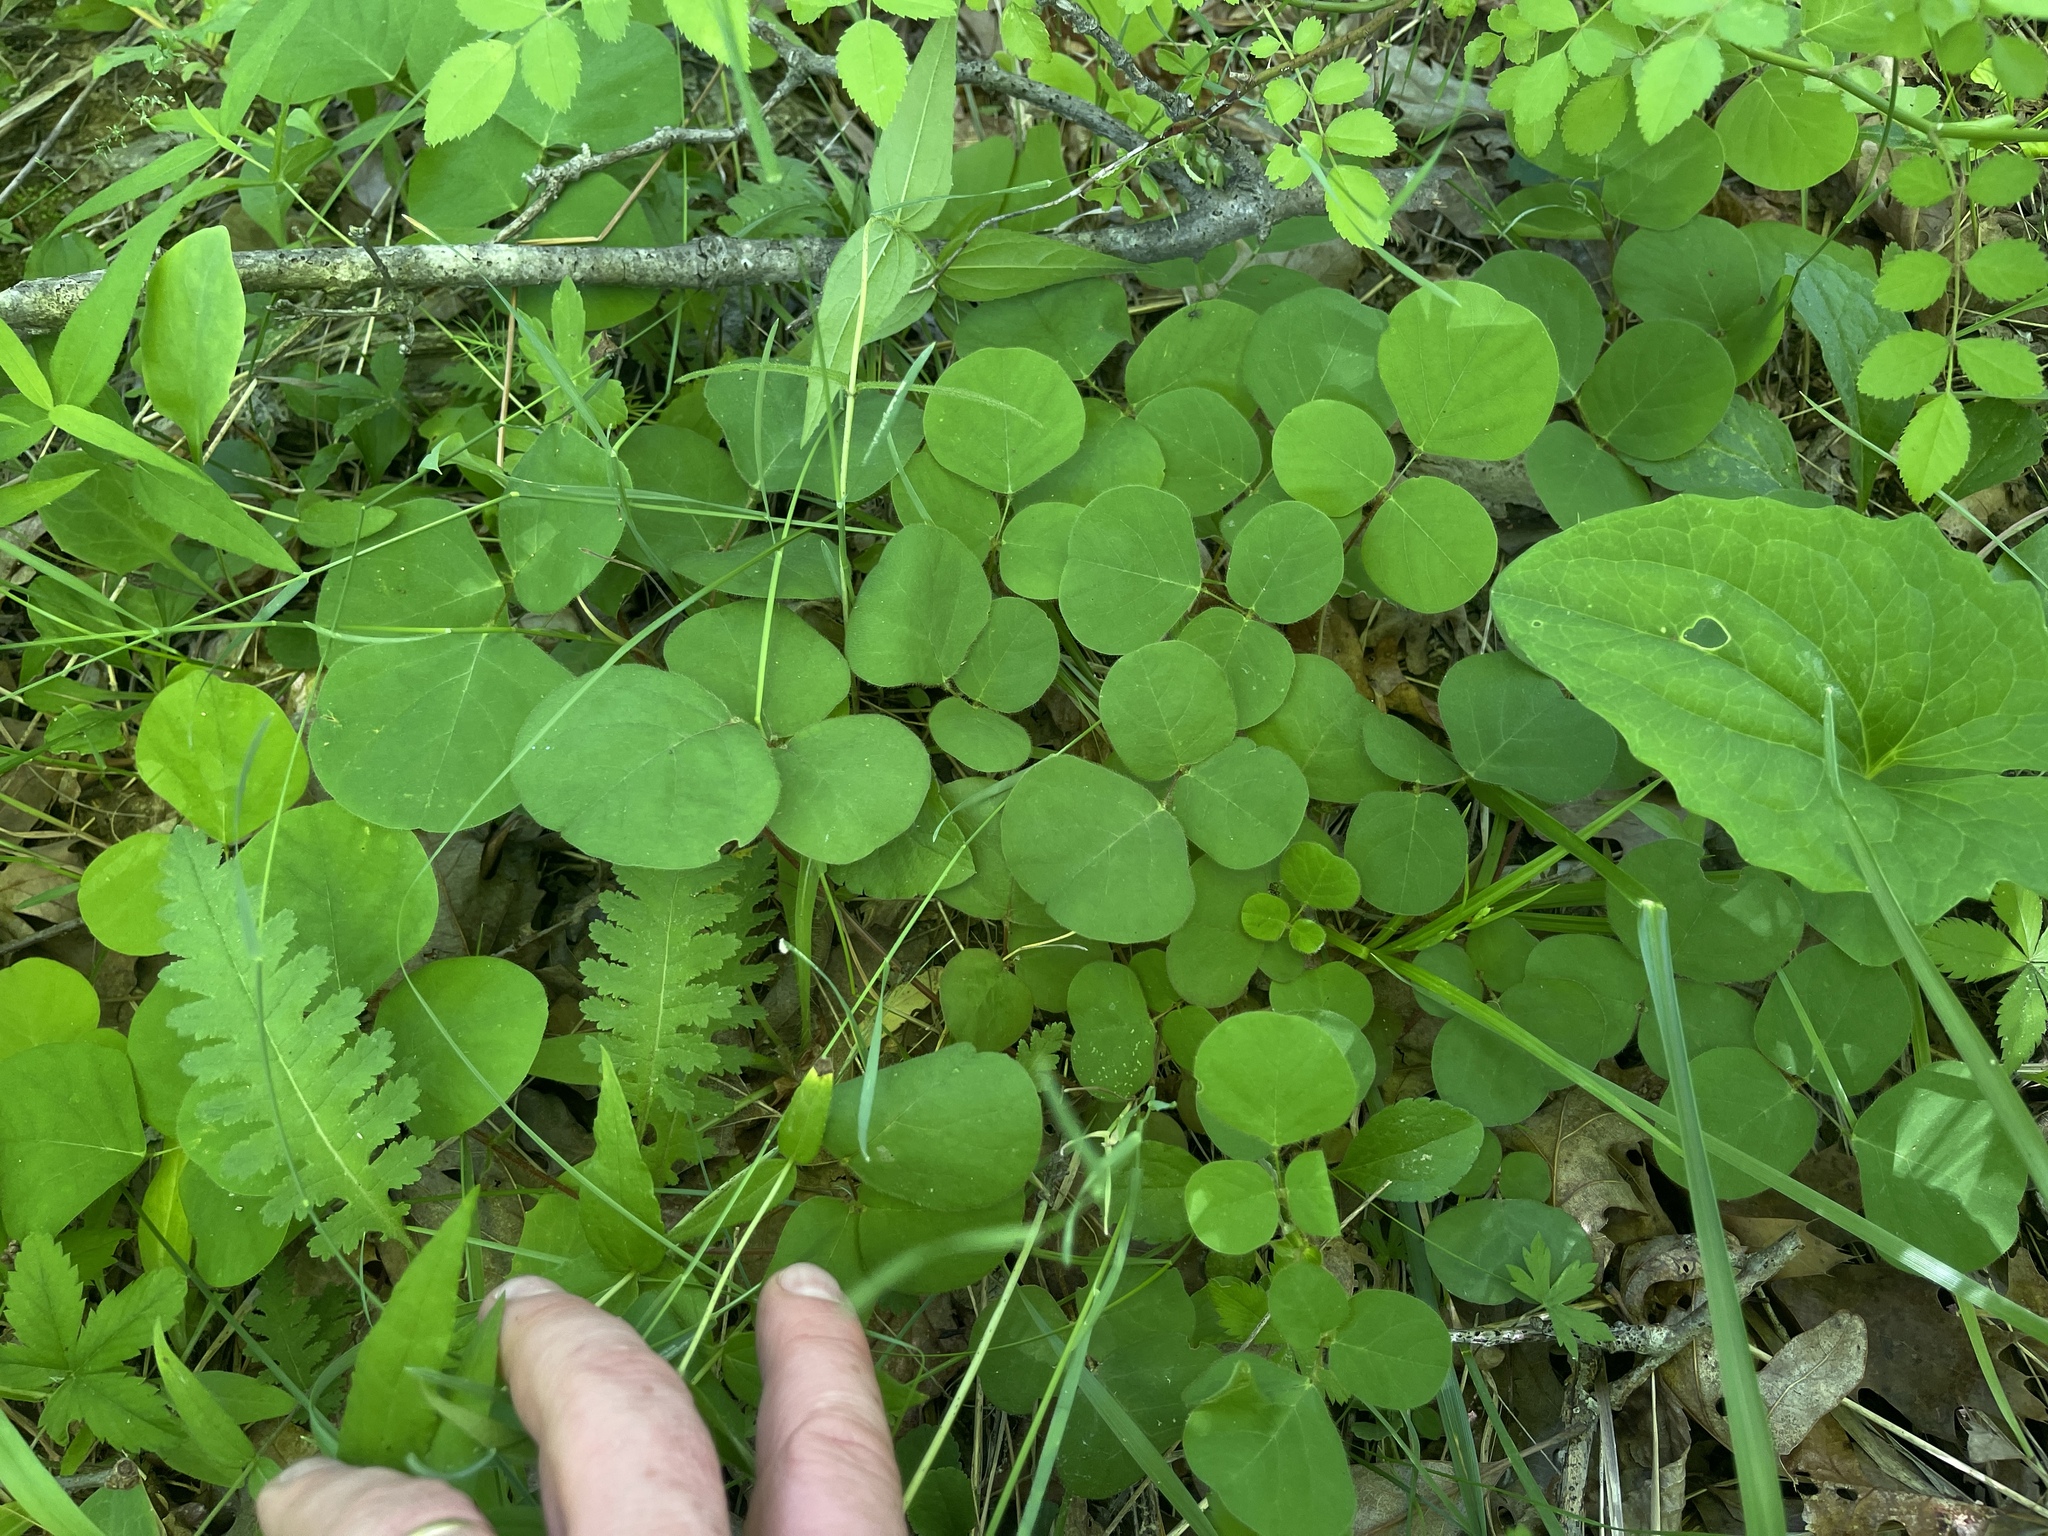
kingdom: Plantae
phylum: Tracheophyta
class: Magnoliopsida
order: Fabales
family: Fabaceae
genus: Desmodium
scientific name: Desmodium rotundifolium
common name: Dollarleaf
